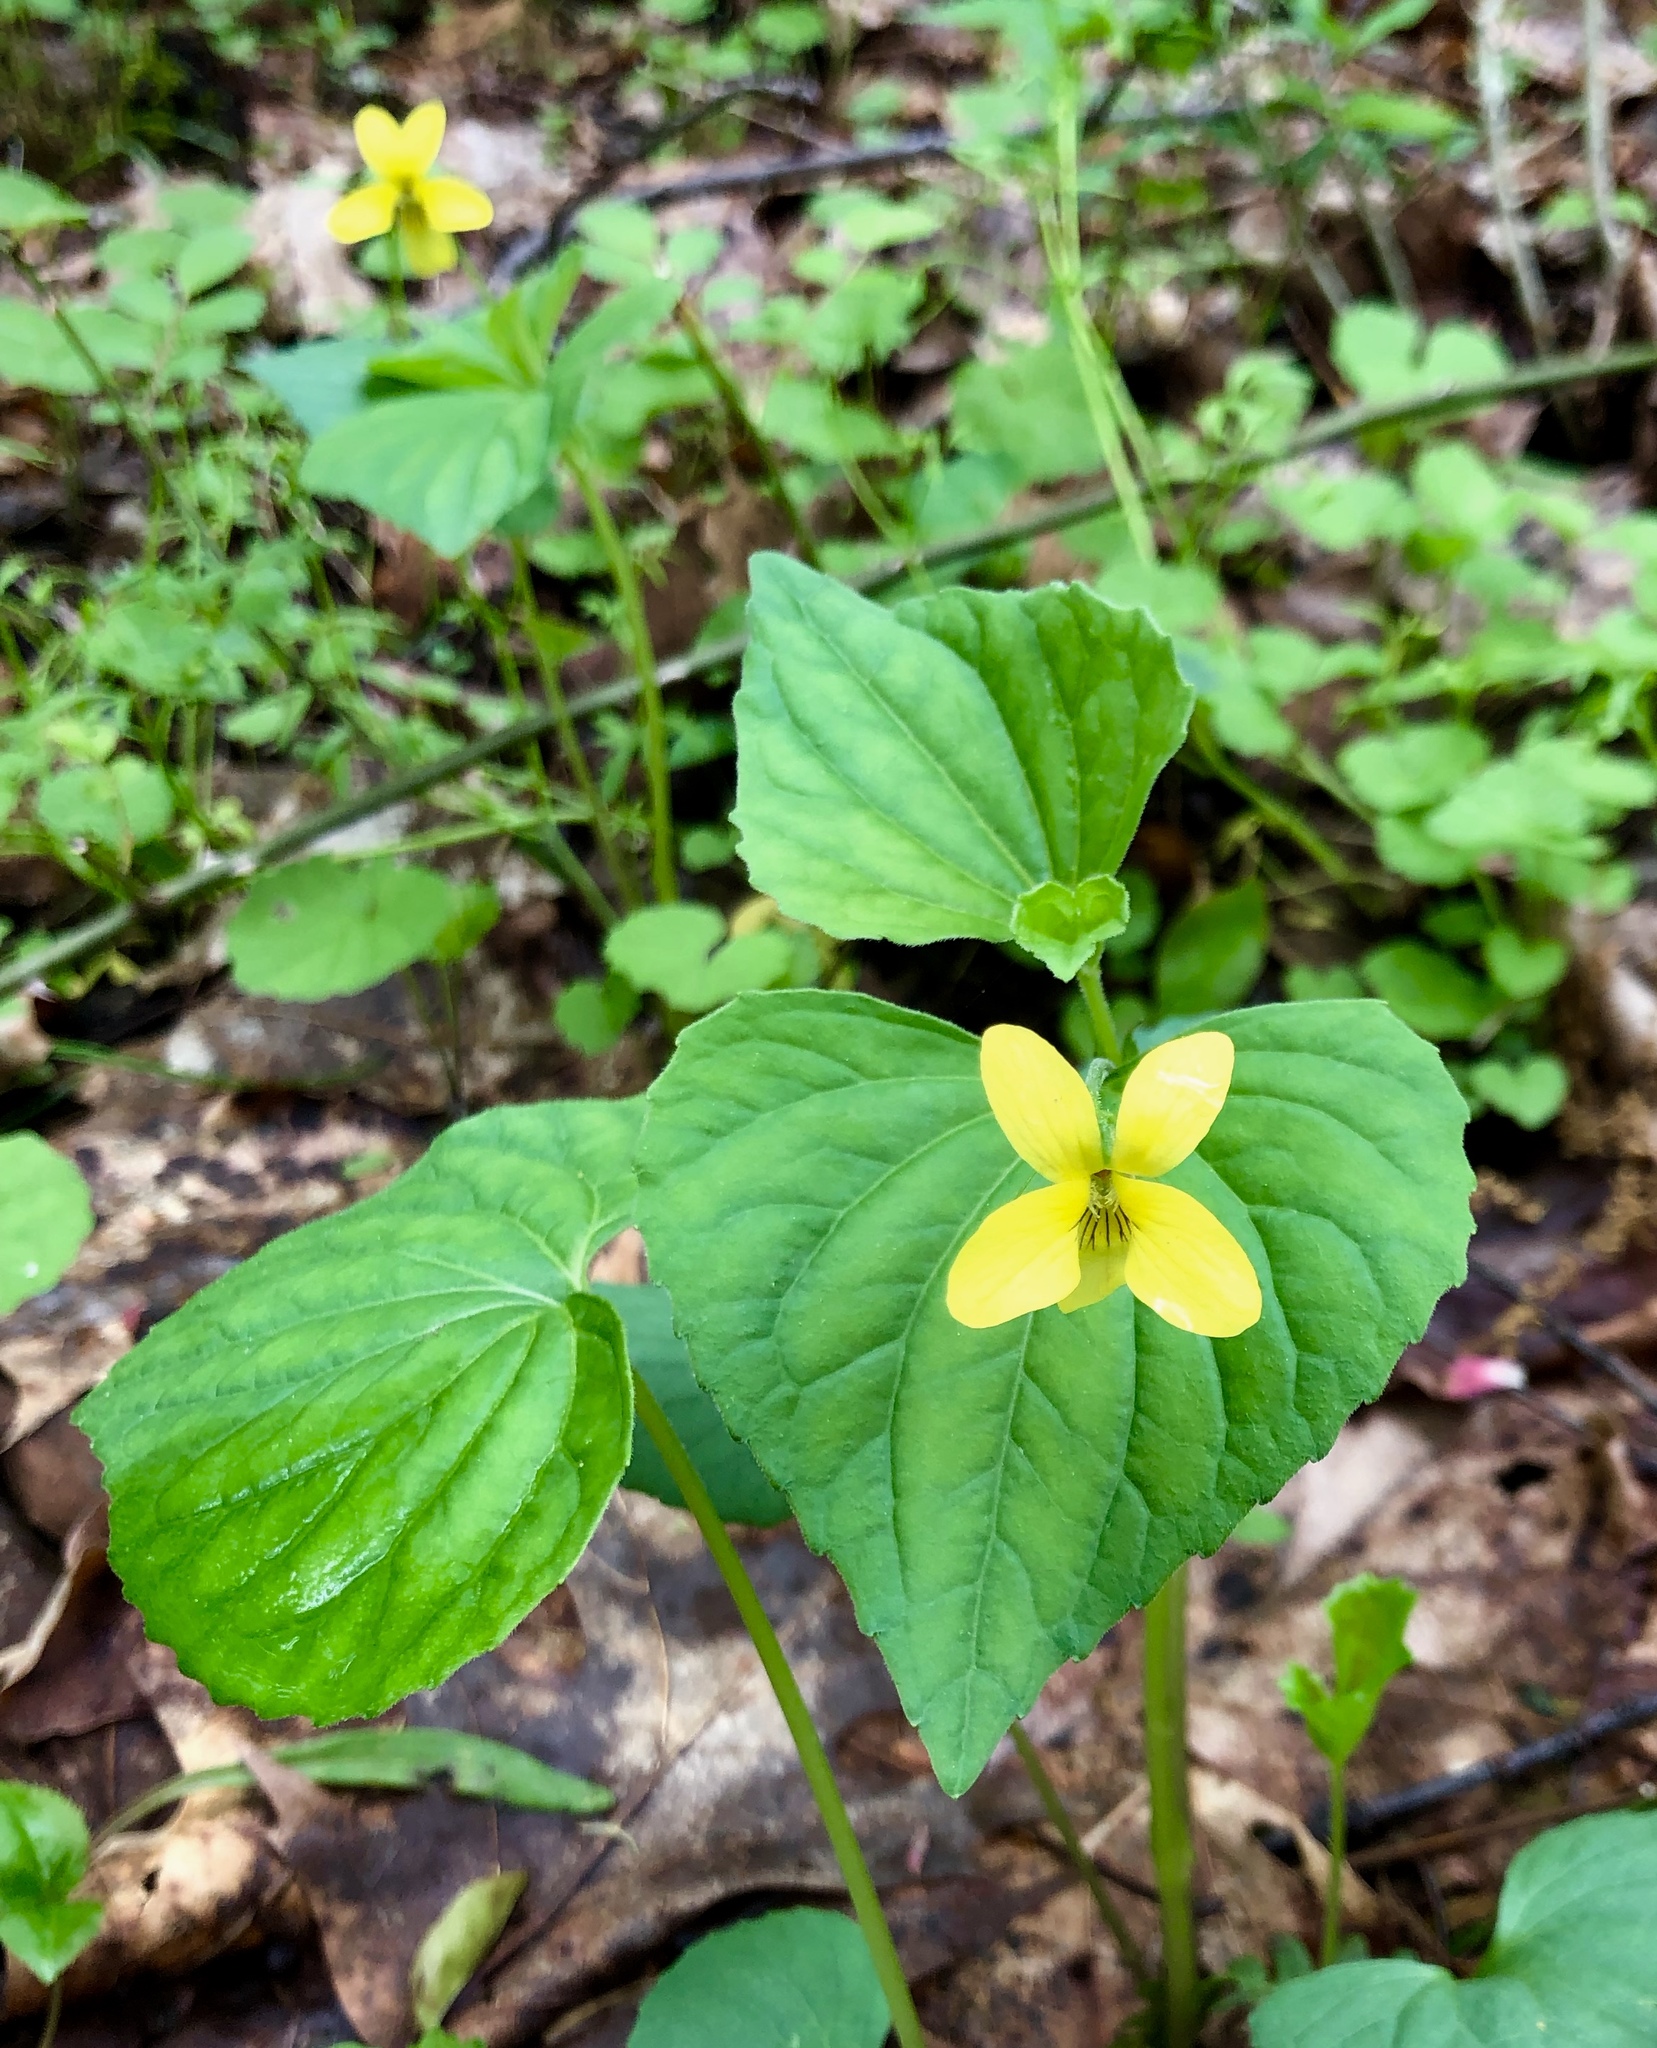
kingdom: Plantae
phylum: Tracheophyta
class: Magnoliopsida
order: Malpighiales
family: Violaceae
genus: Viola
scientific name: Viola eriocarpa
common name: Smooth yellow violet
